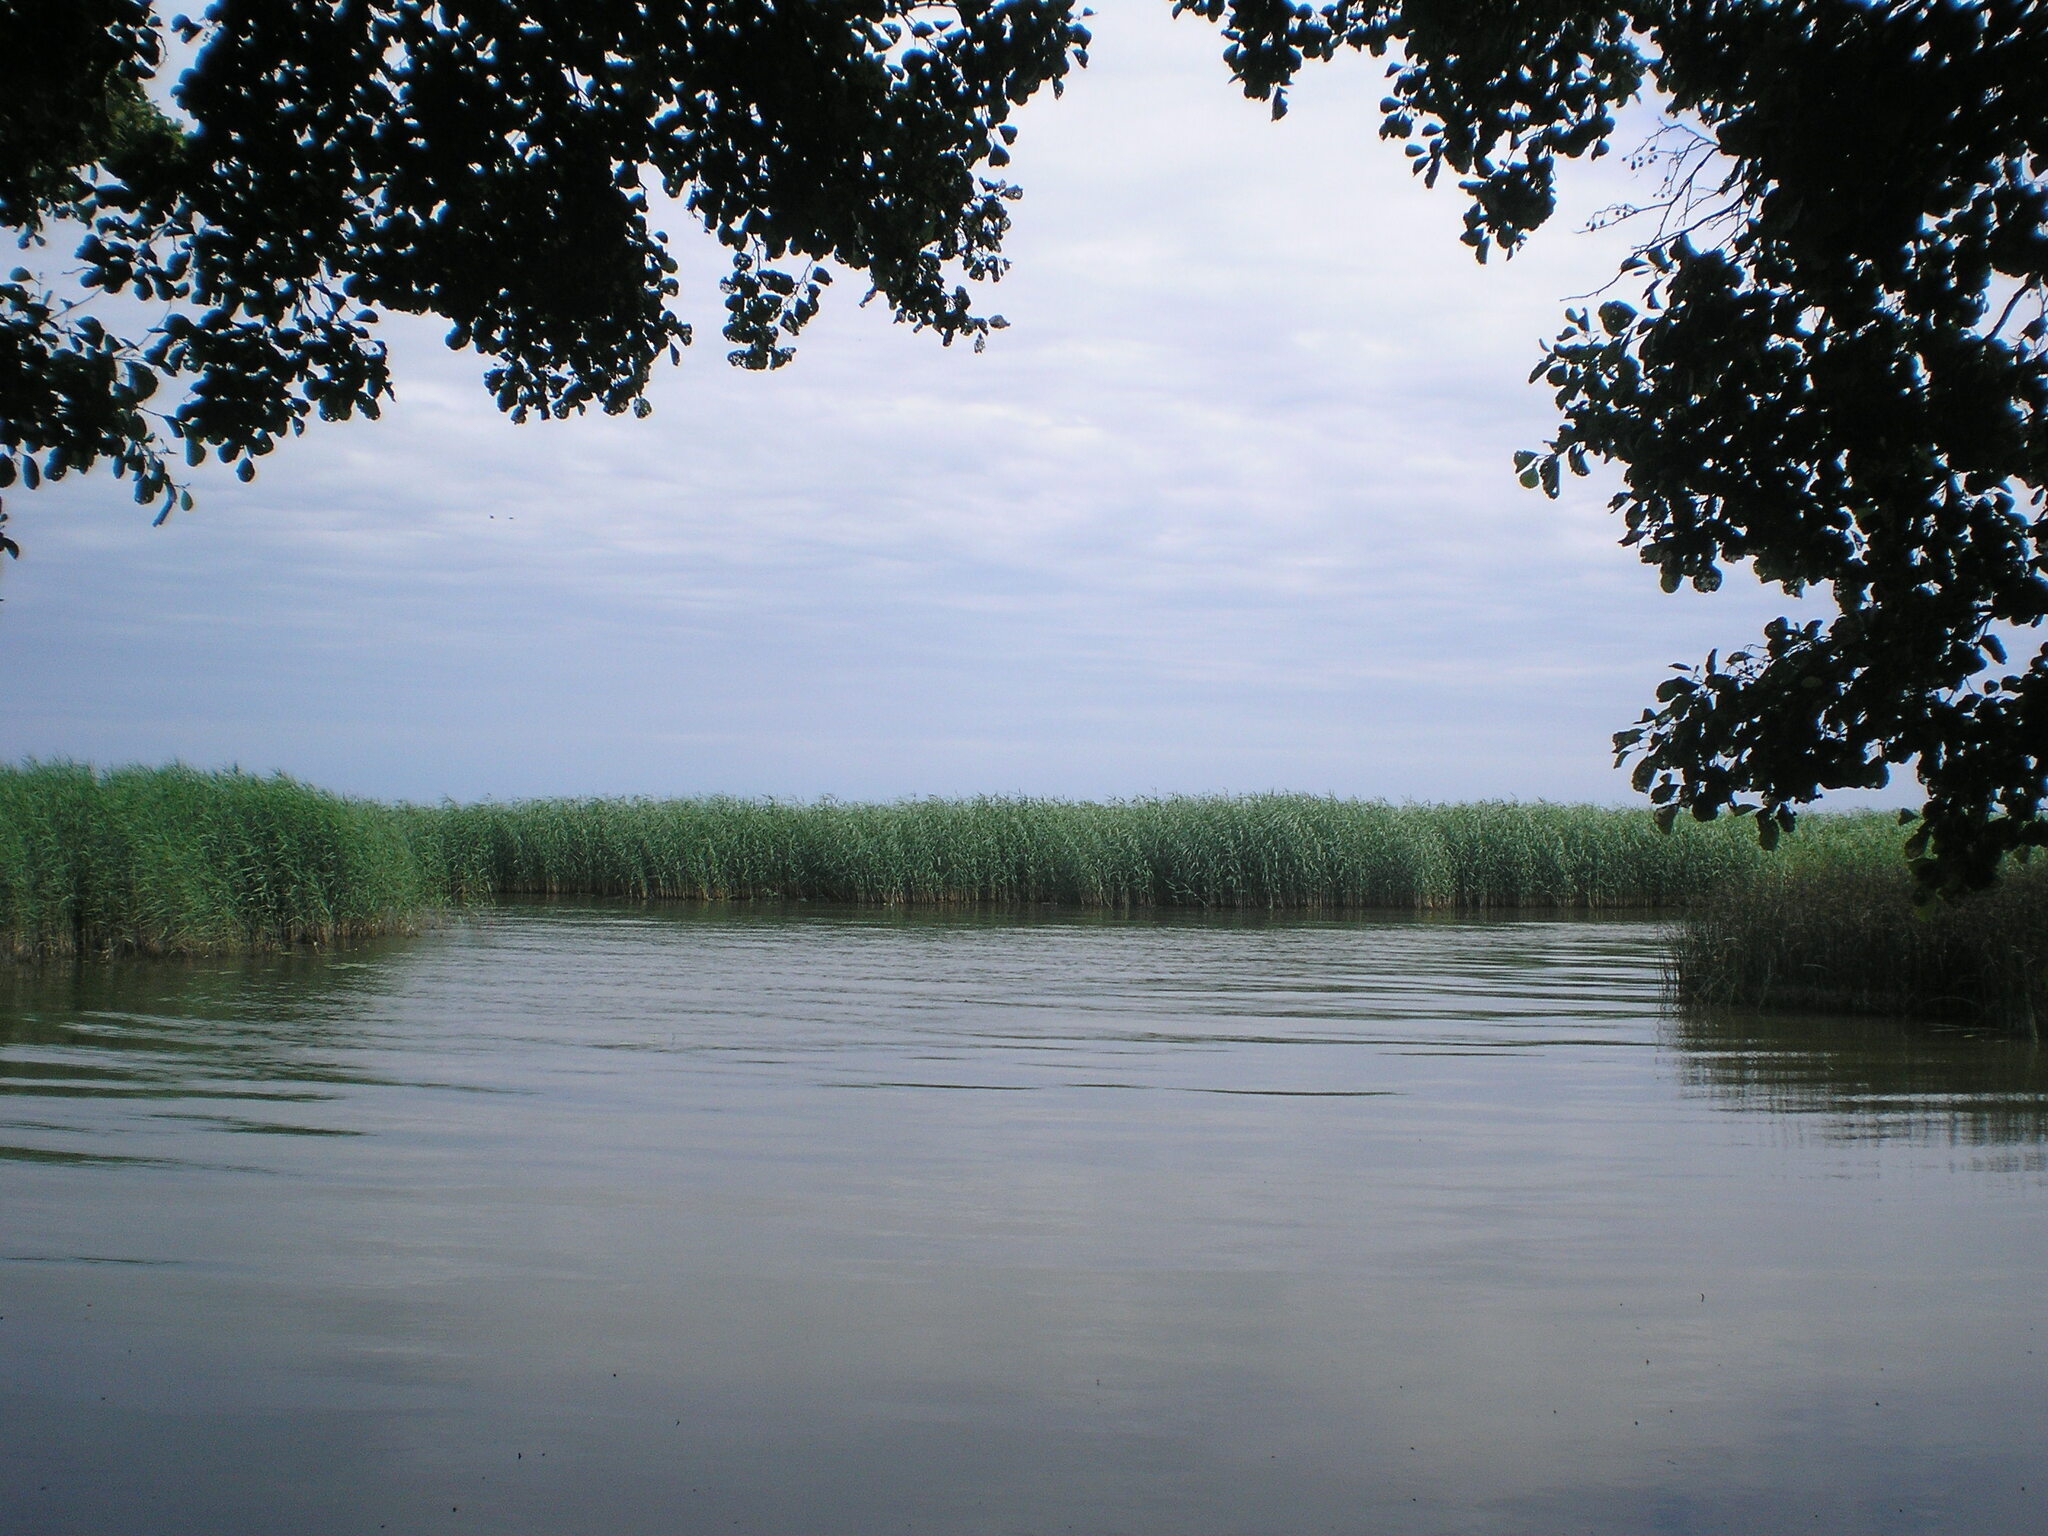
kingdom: Plantae
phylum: Tracheophyta
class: Liliopsida
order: Poales
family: Poaceae
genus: Phragmites
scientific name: Phragmites australis
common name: Common reed
